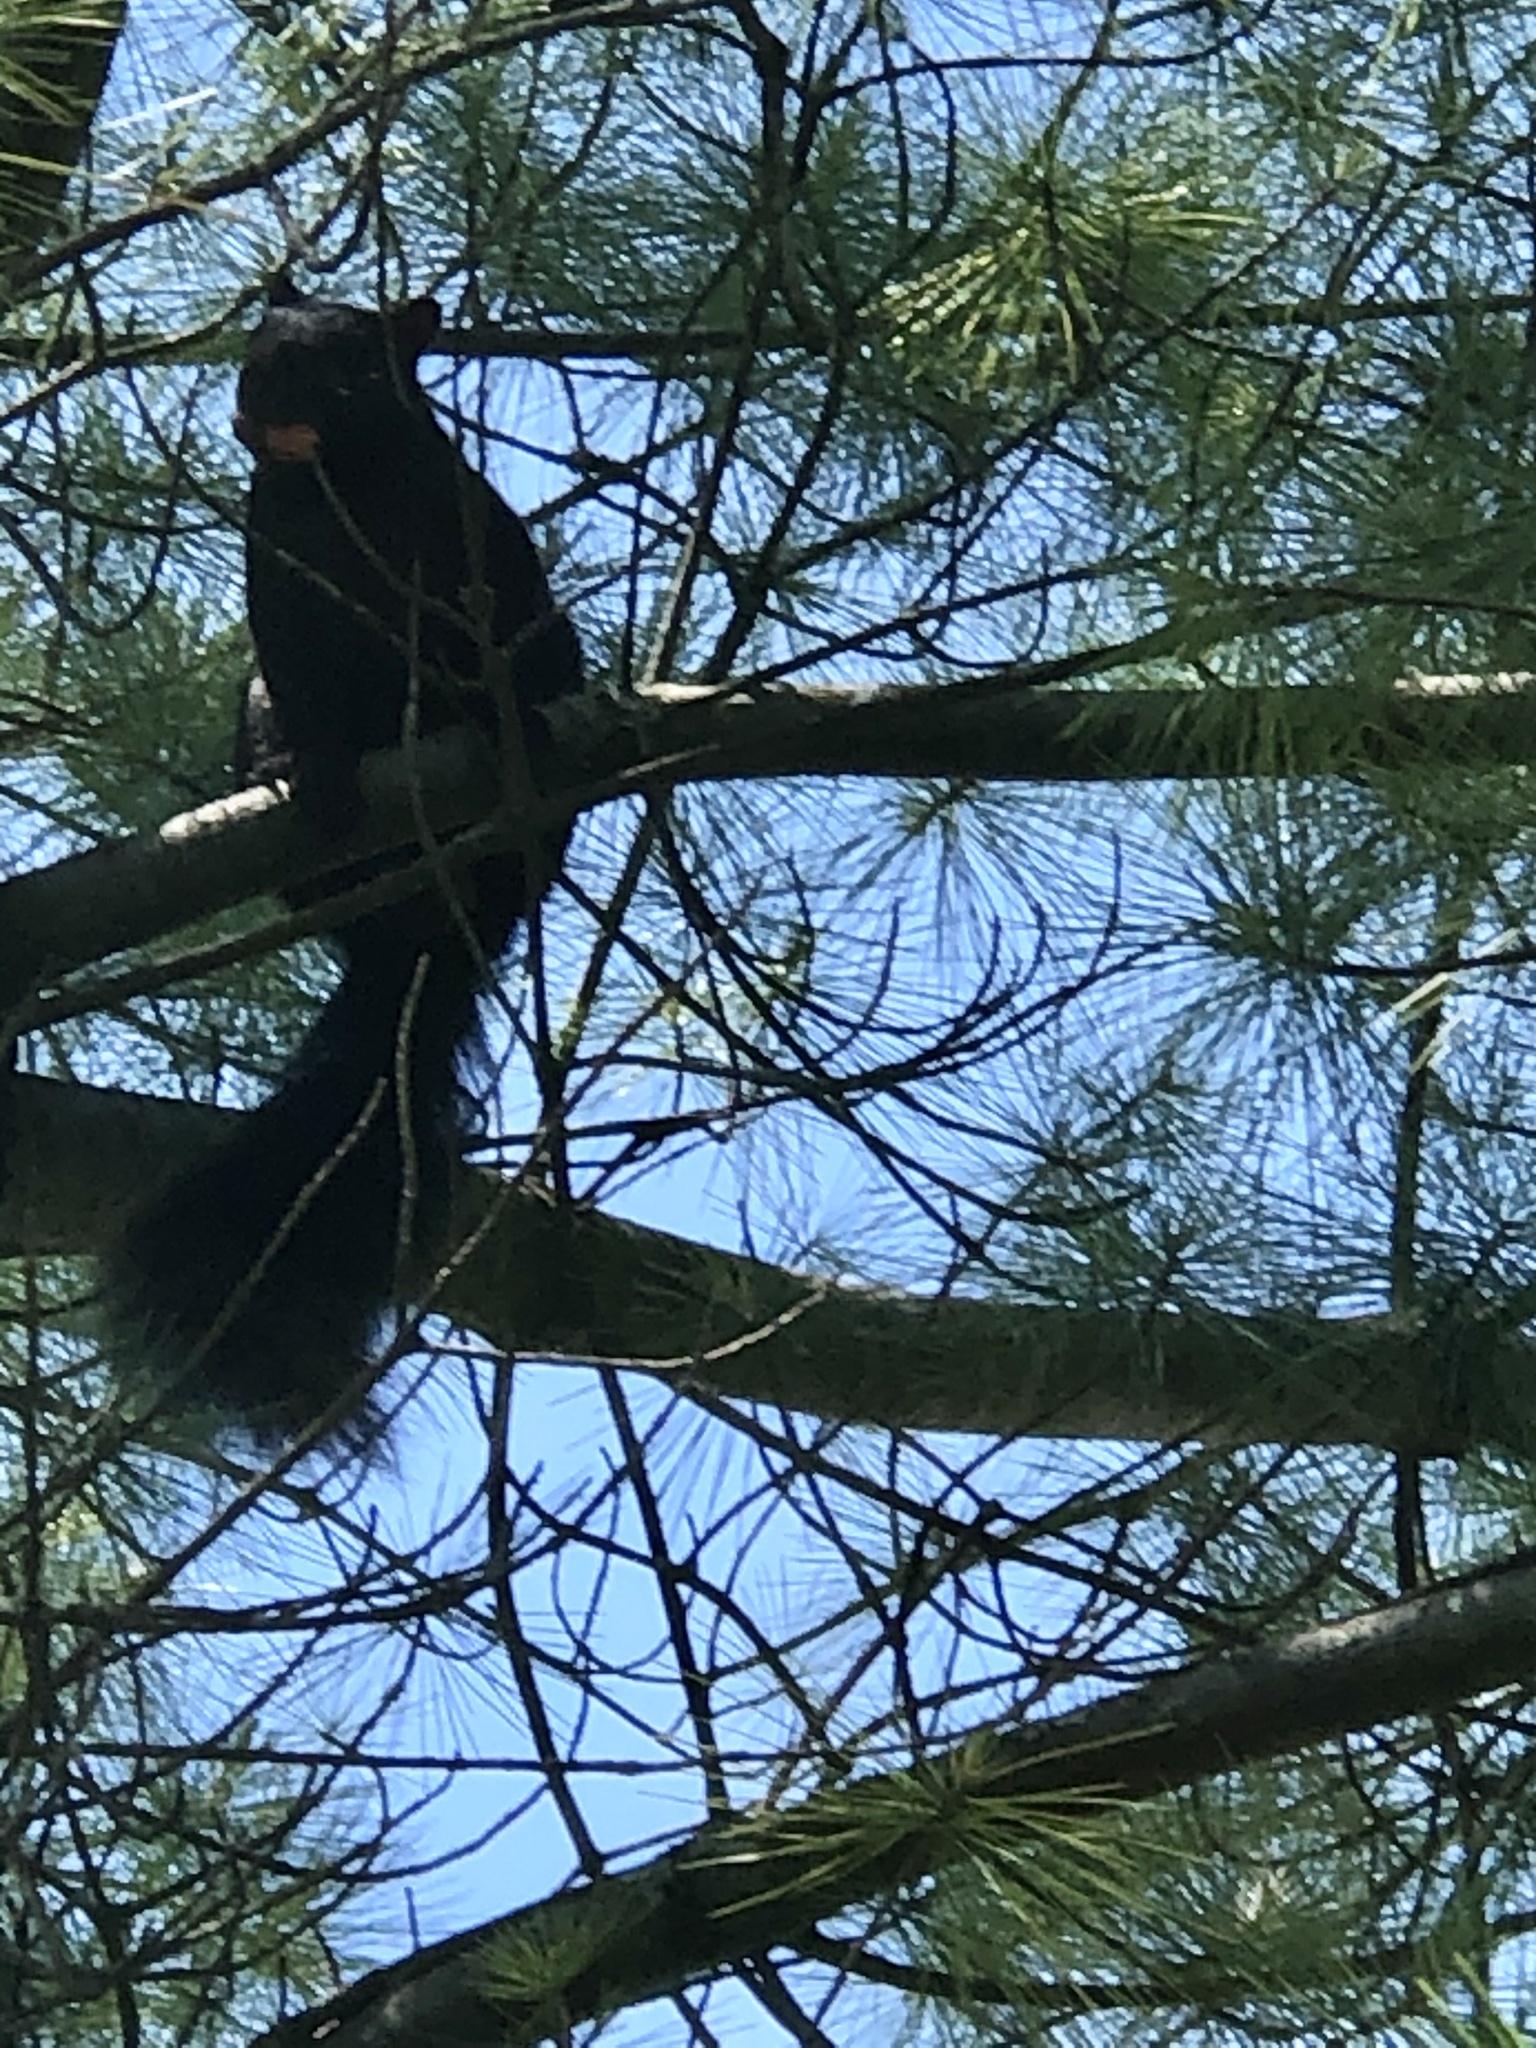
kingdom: Animalia
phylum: Chordata
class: Mammalia
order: Rodentia
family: Sciuridae
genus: Sciurus
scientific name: Sciurus carolinensis
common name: Eastern gray squirrel
